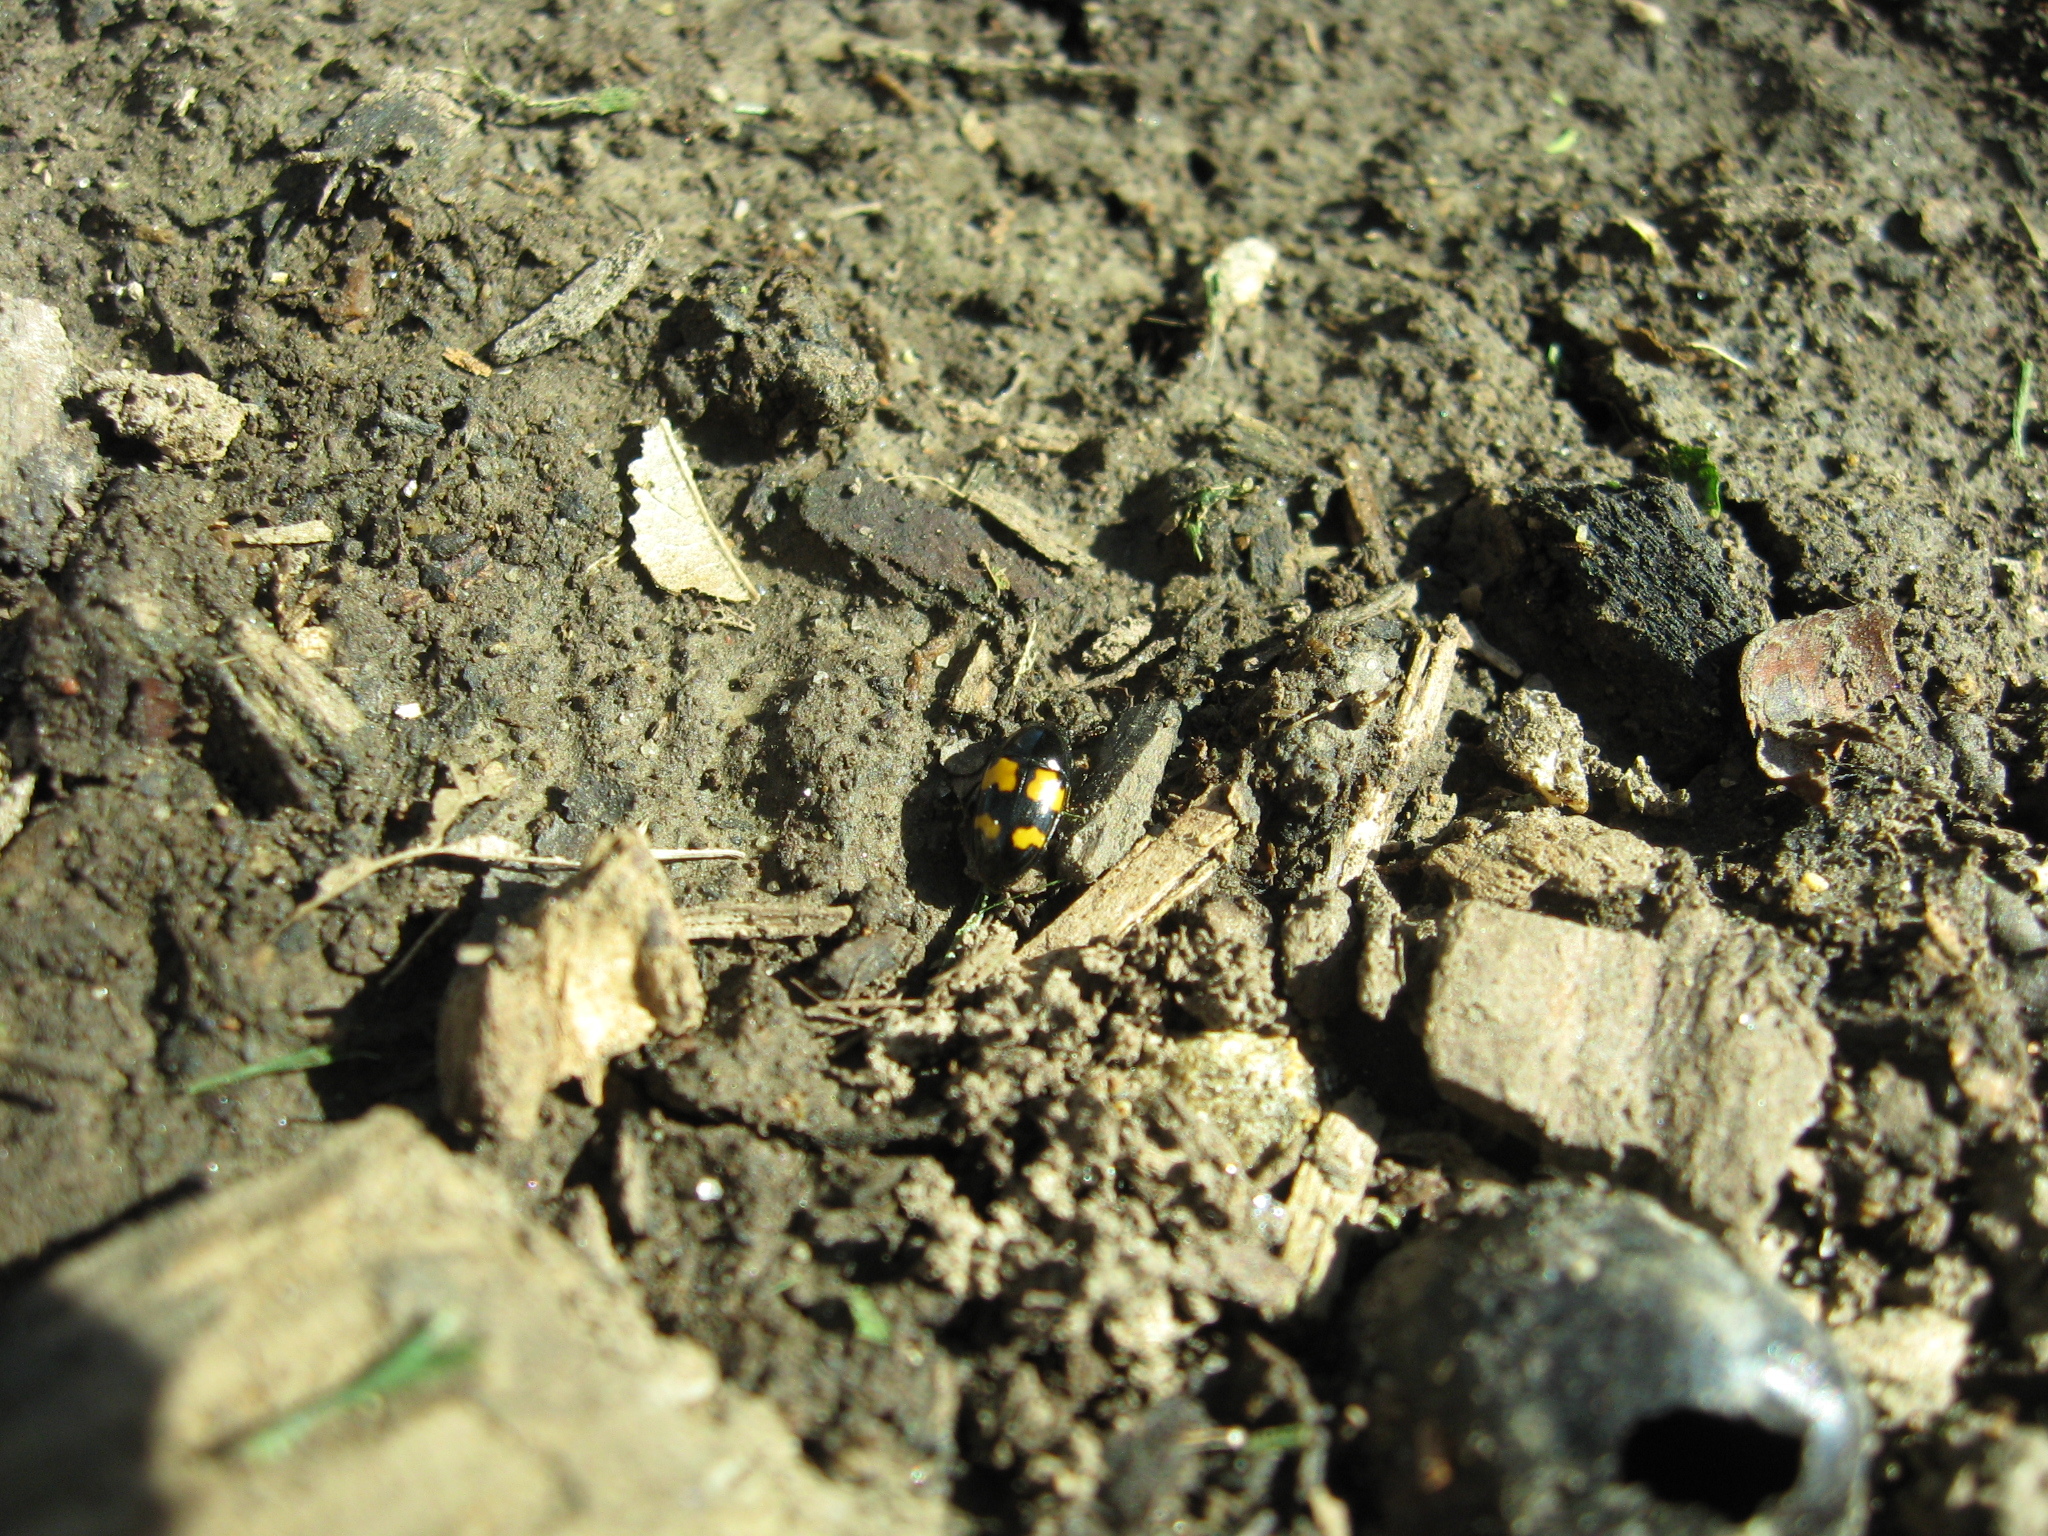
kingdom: Animalia
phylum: Arthropoda
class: Insecta
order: Coleoptera
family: Nitidulidae
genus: Glischrochilus
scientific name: Glischrochilus fasciatus
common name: Picnic beetle
